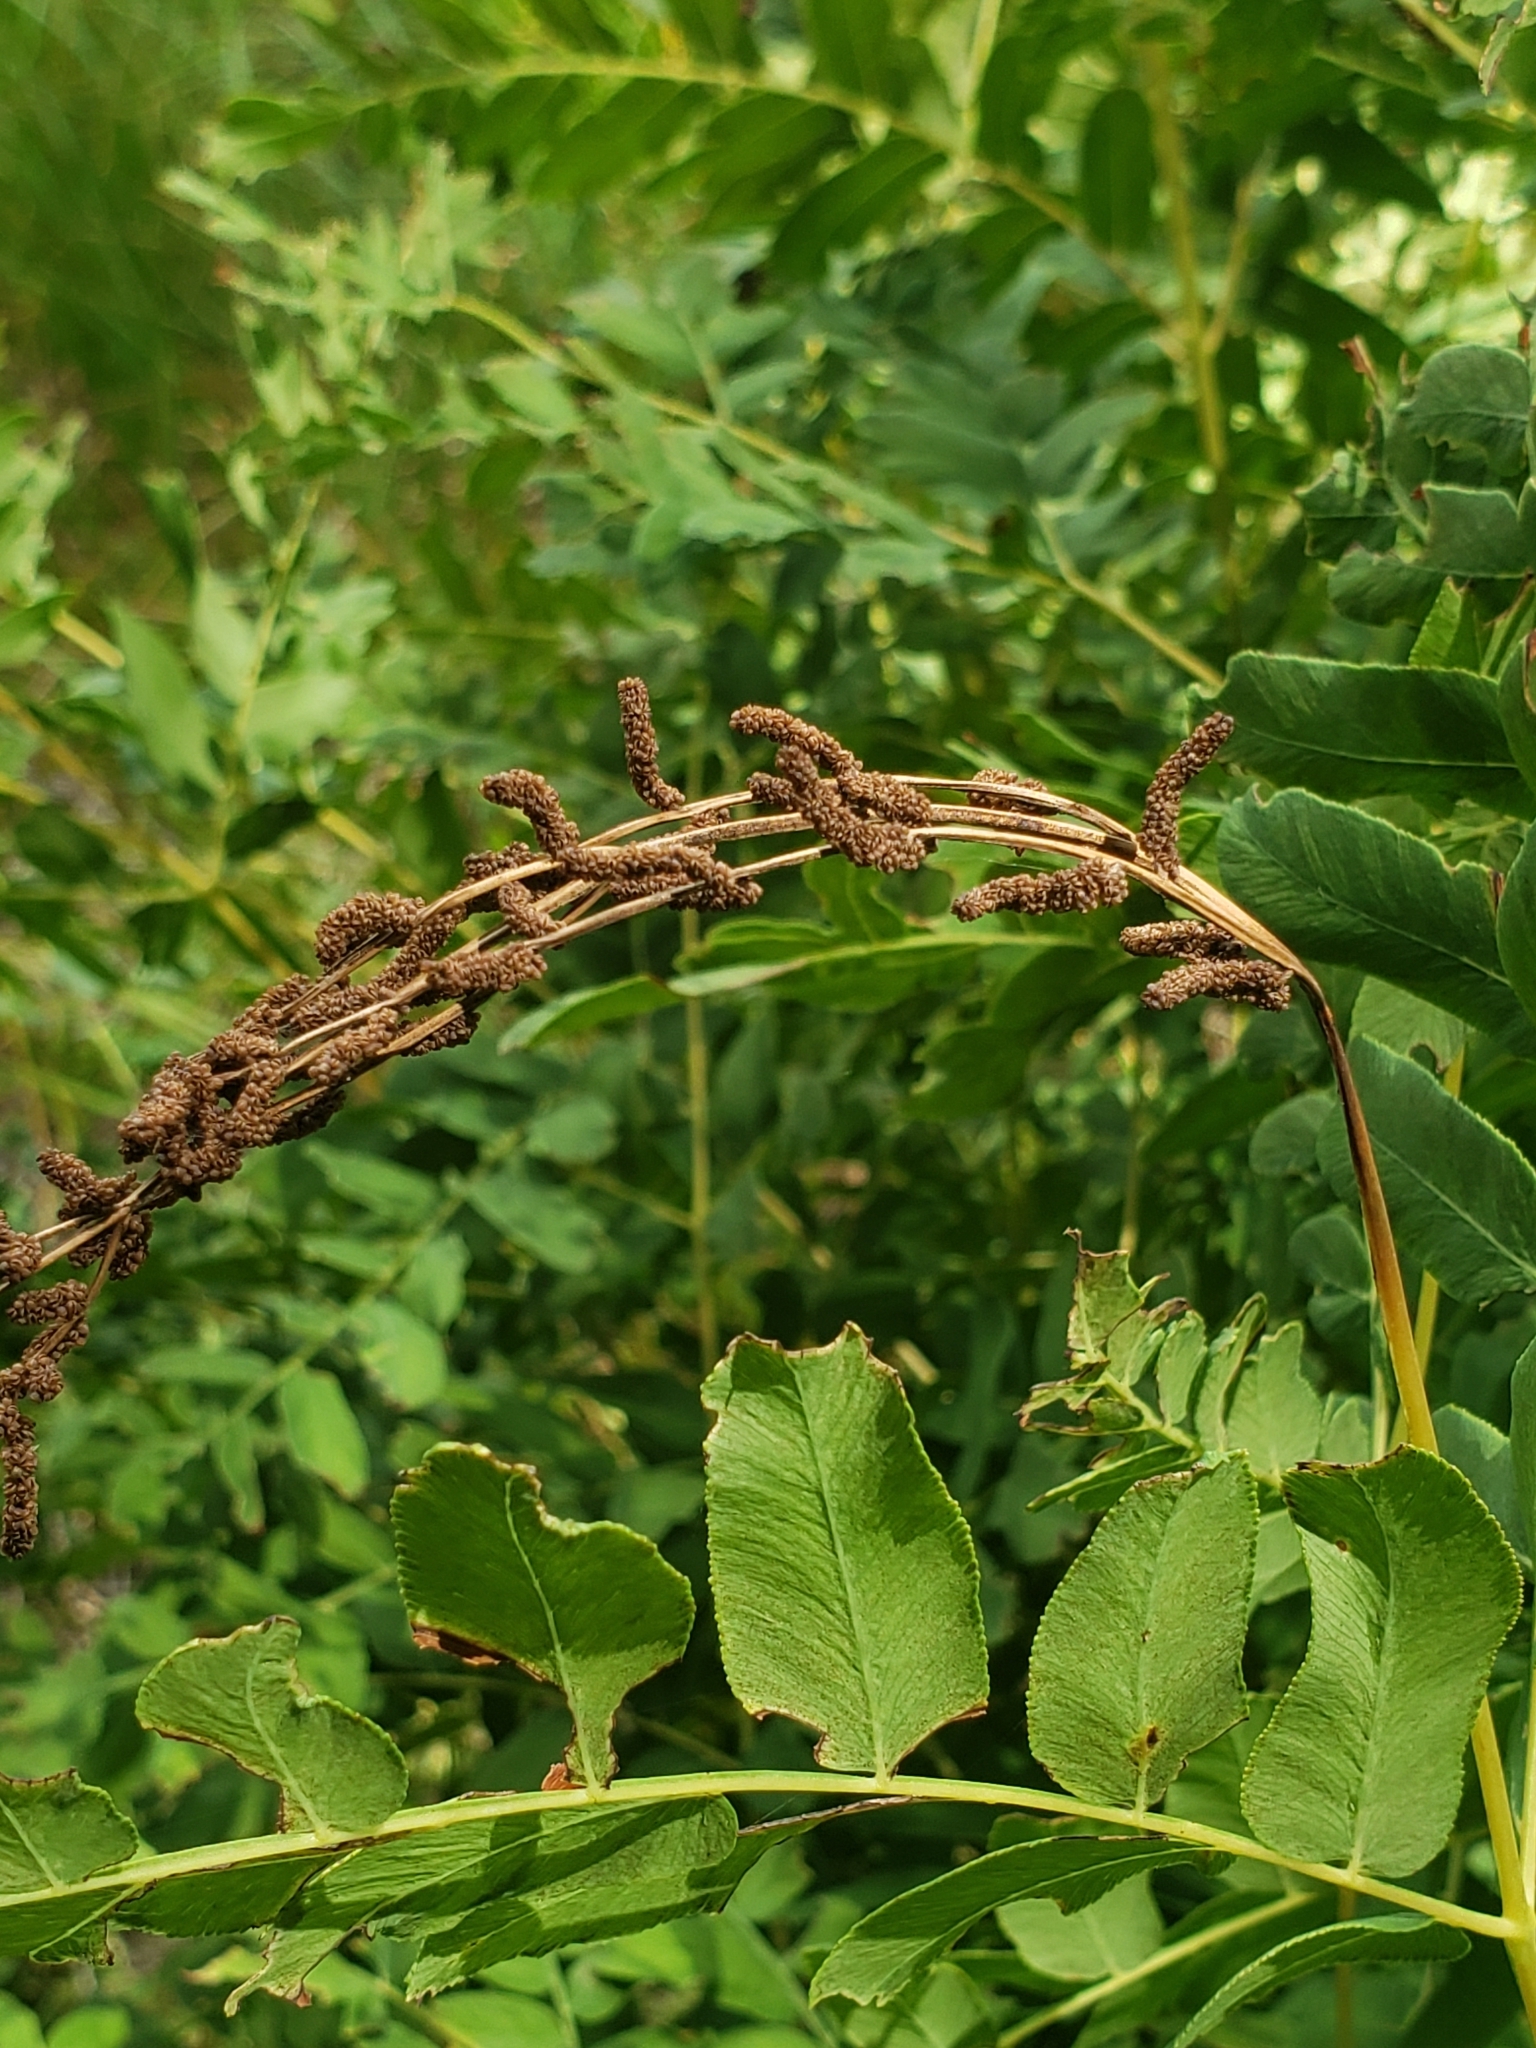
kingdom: Plantae
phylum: Tracheophyta
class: Polypodiopsida
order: Osmundales
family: Osmundaceae
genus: Osmunda
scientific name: Osmunda spectabilis
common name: American royal fern
